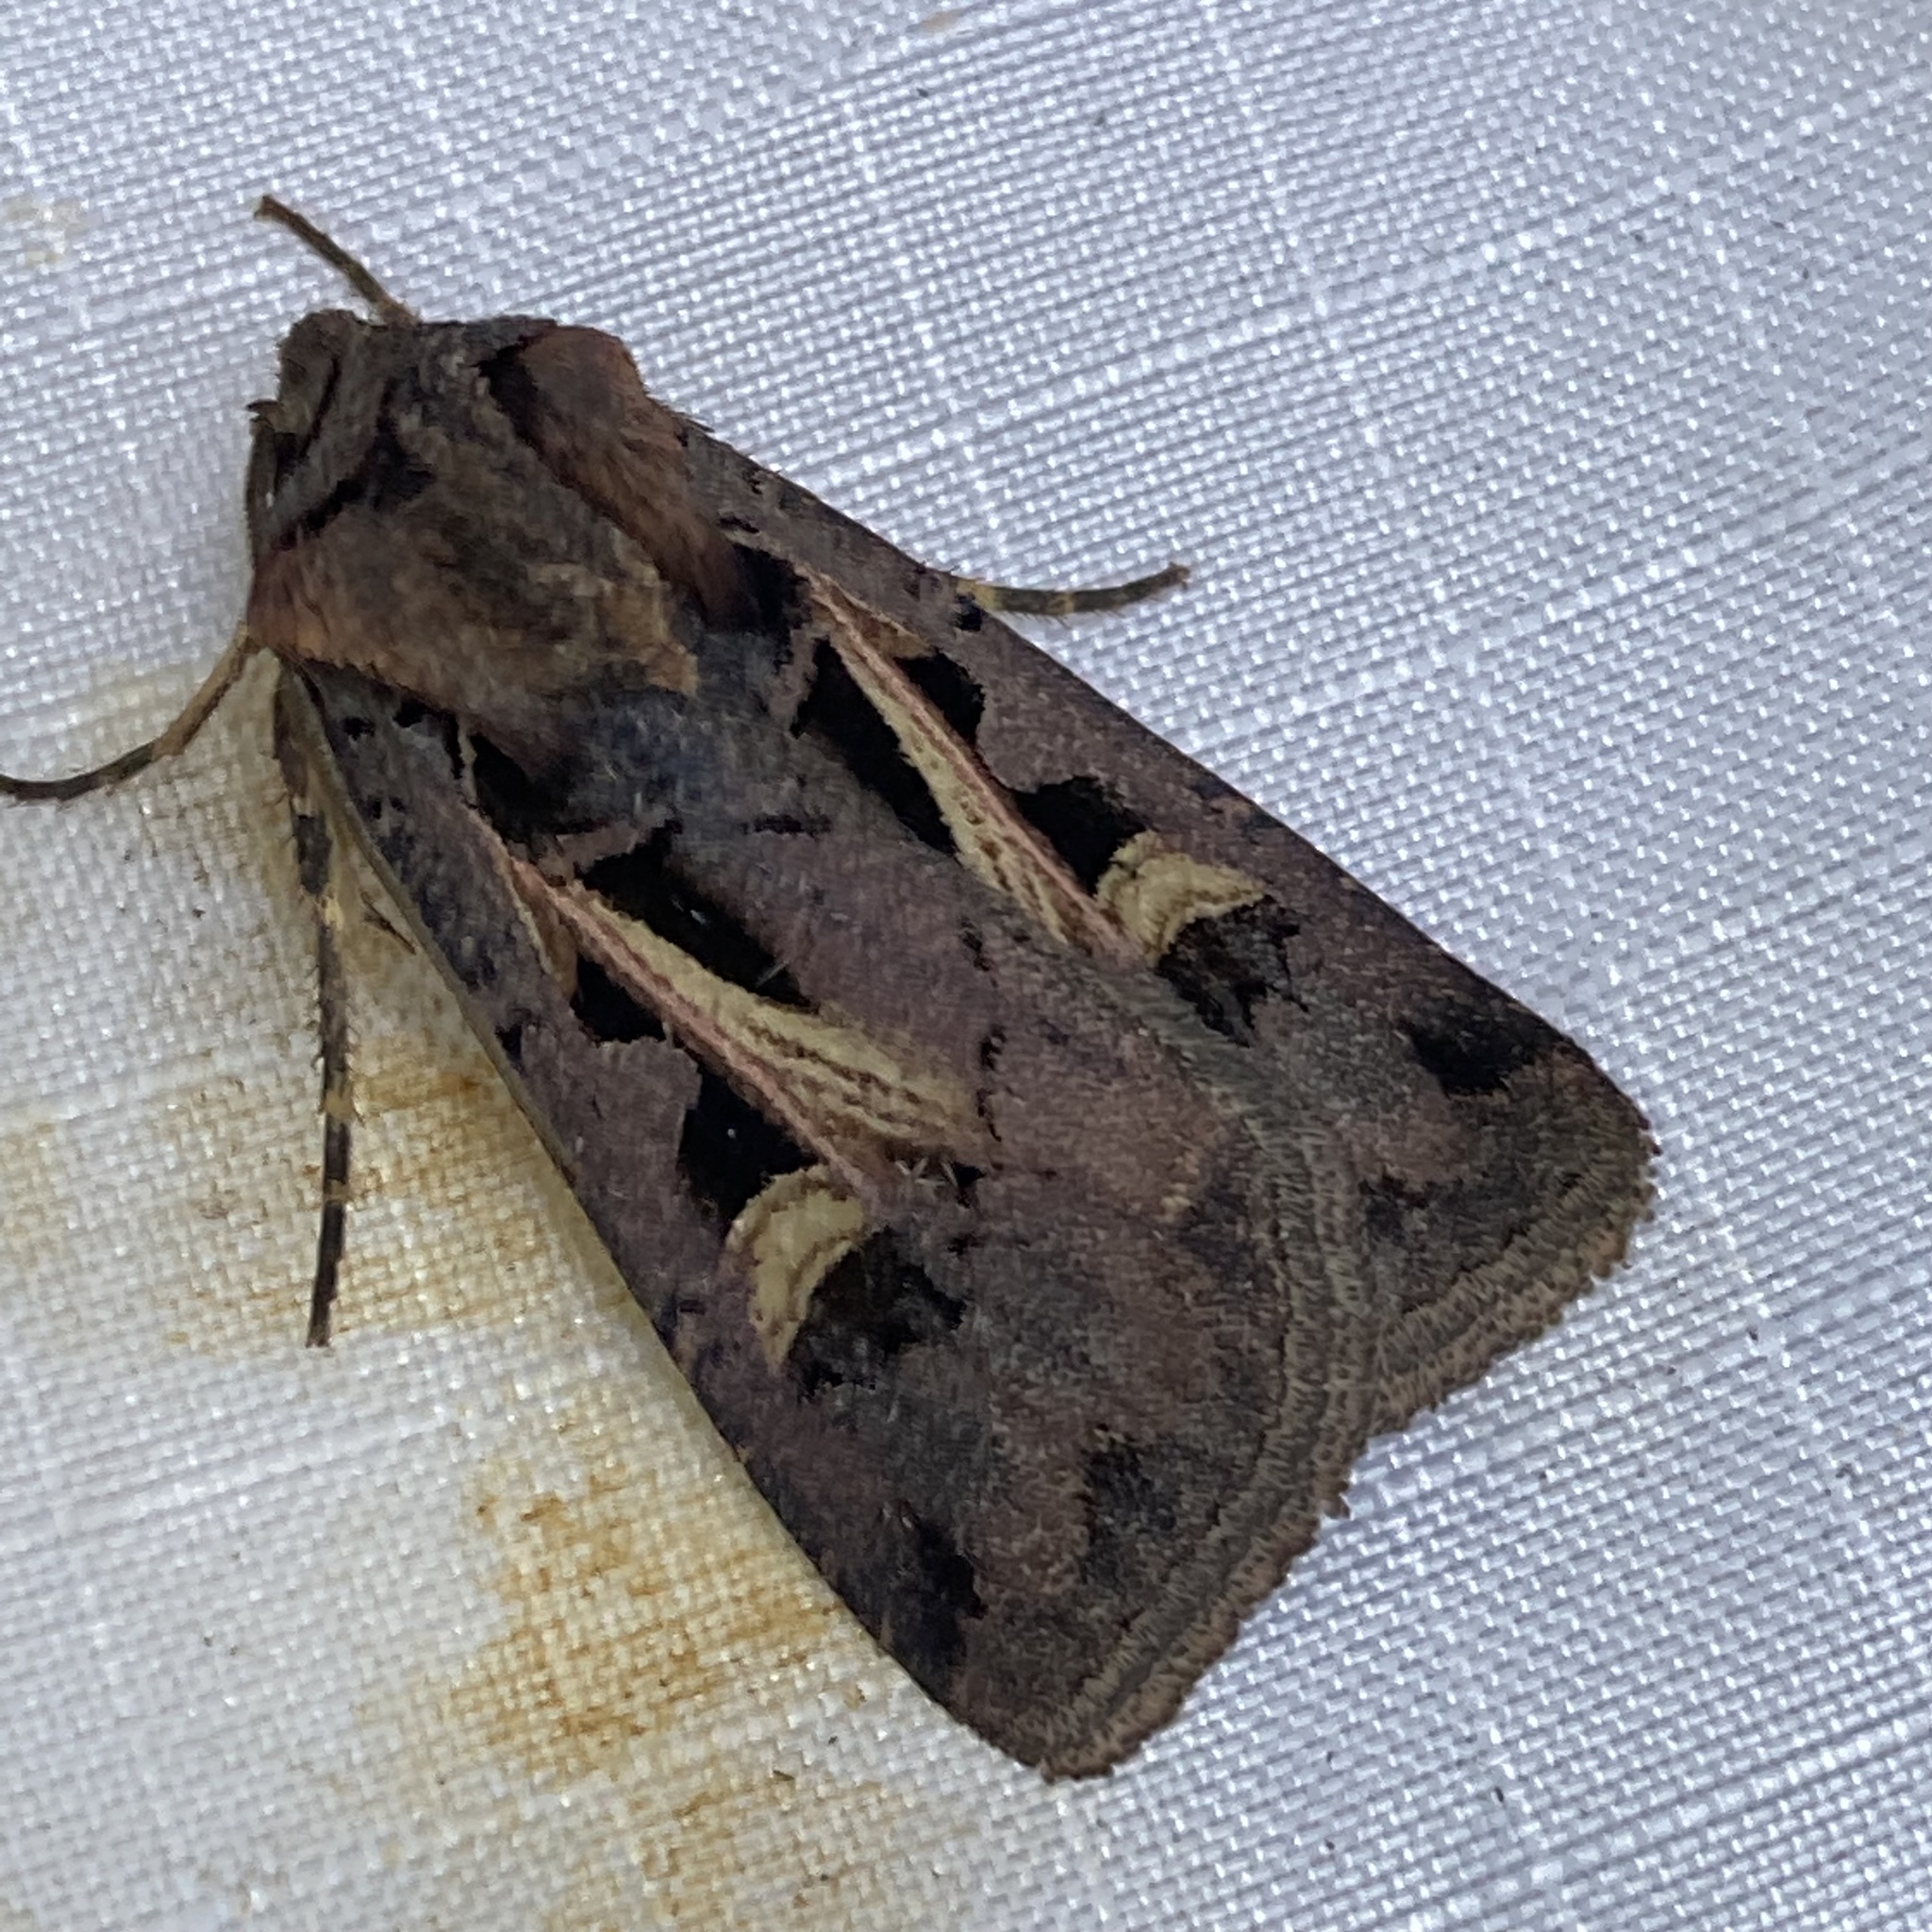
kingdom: Animalia
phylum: Arthropoda
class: Insecta
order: Lepidoptera
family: Noctuidae
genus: Feltia
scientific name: Feltia herilis
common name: Master's dart
